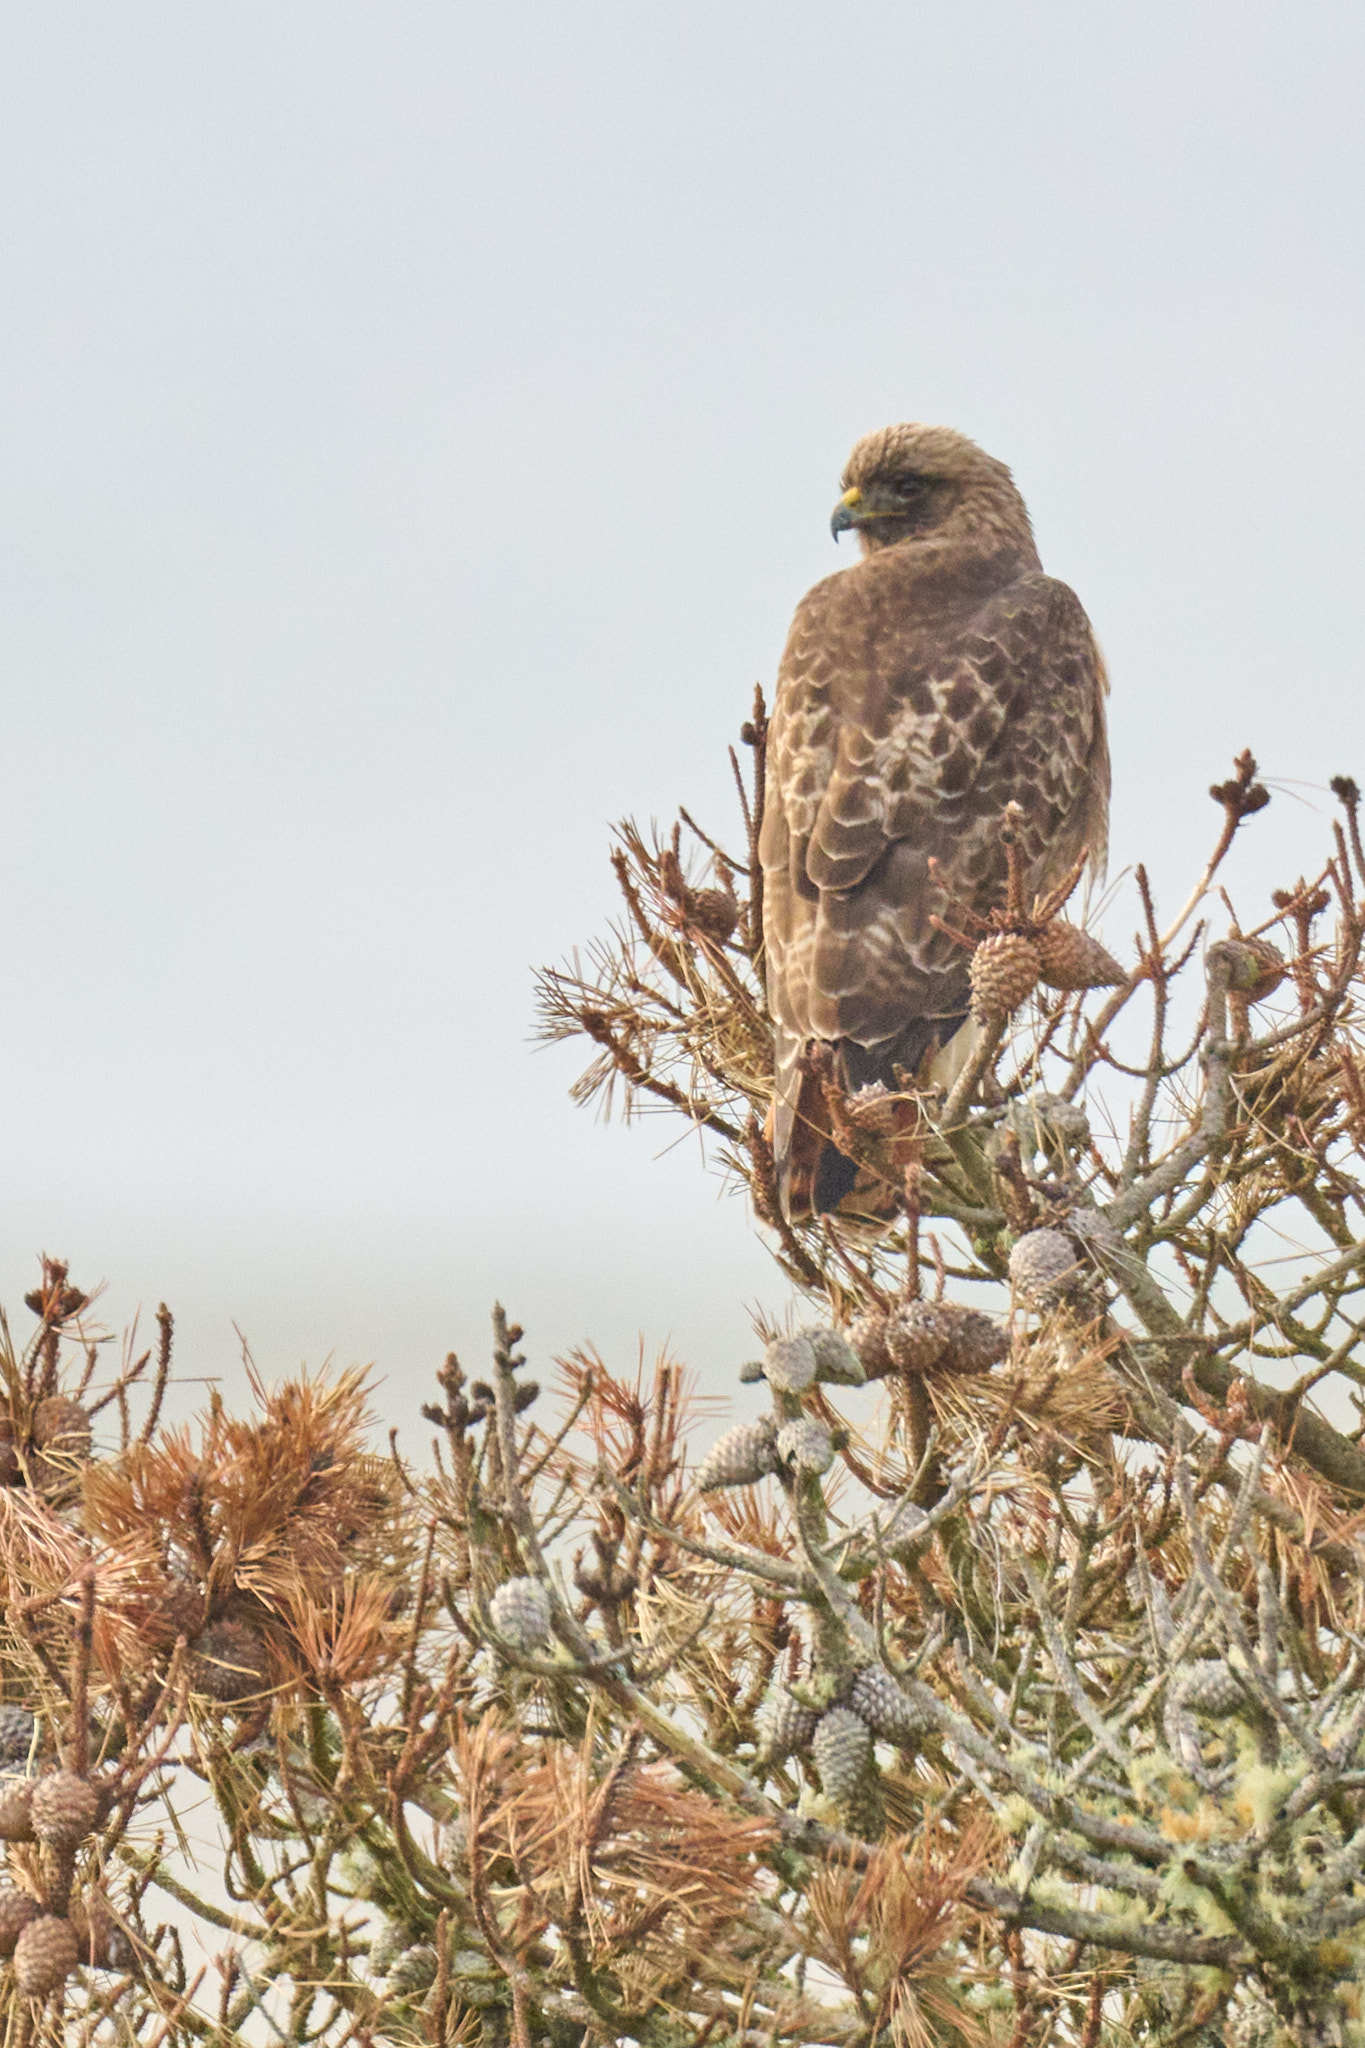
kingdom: Animalia
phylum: Chordata
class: Aves
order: Accipitriformes
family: Accipitridae
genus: Buteo
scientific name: Buteo jamaicensis
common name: Red-tailed hawk
